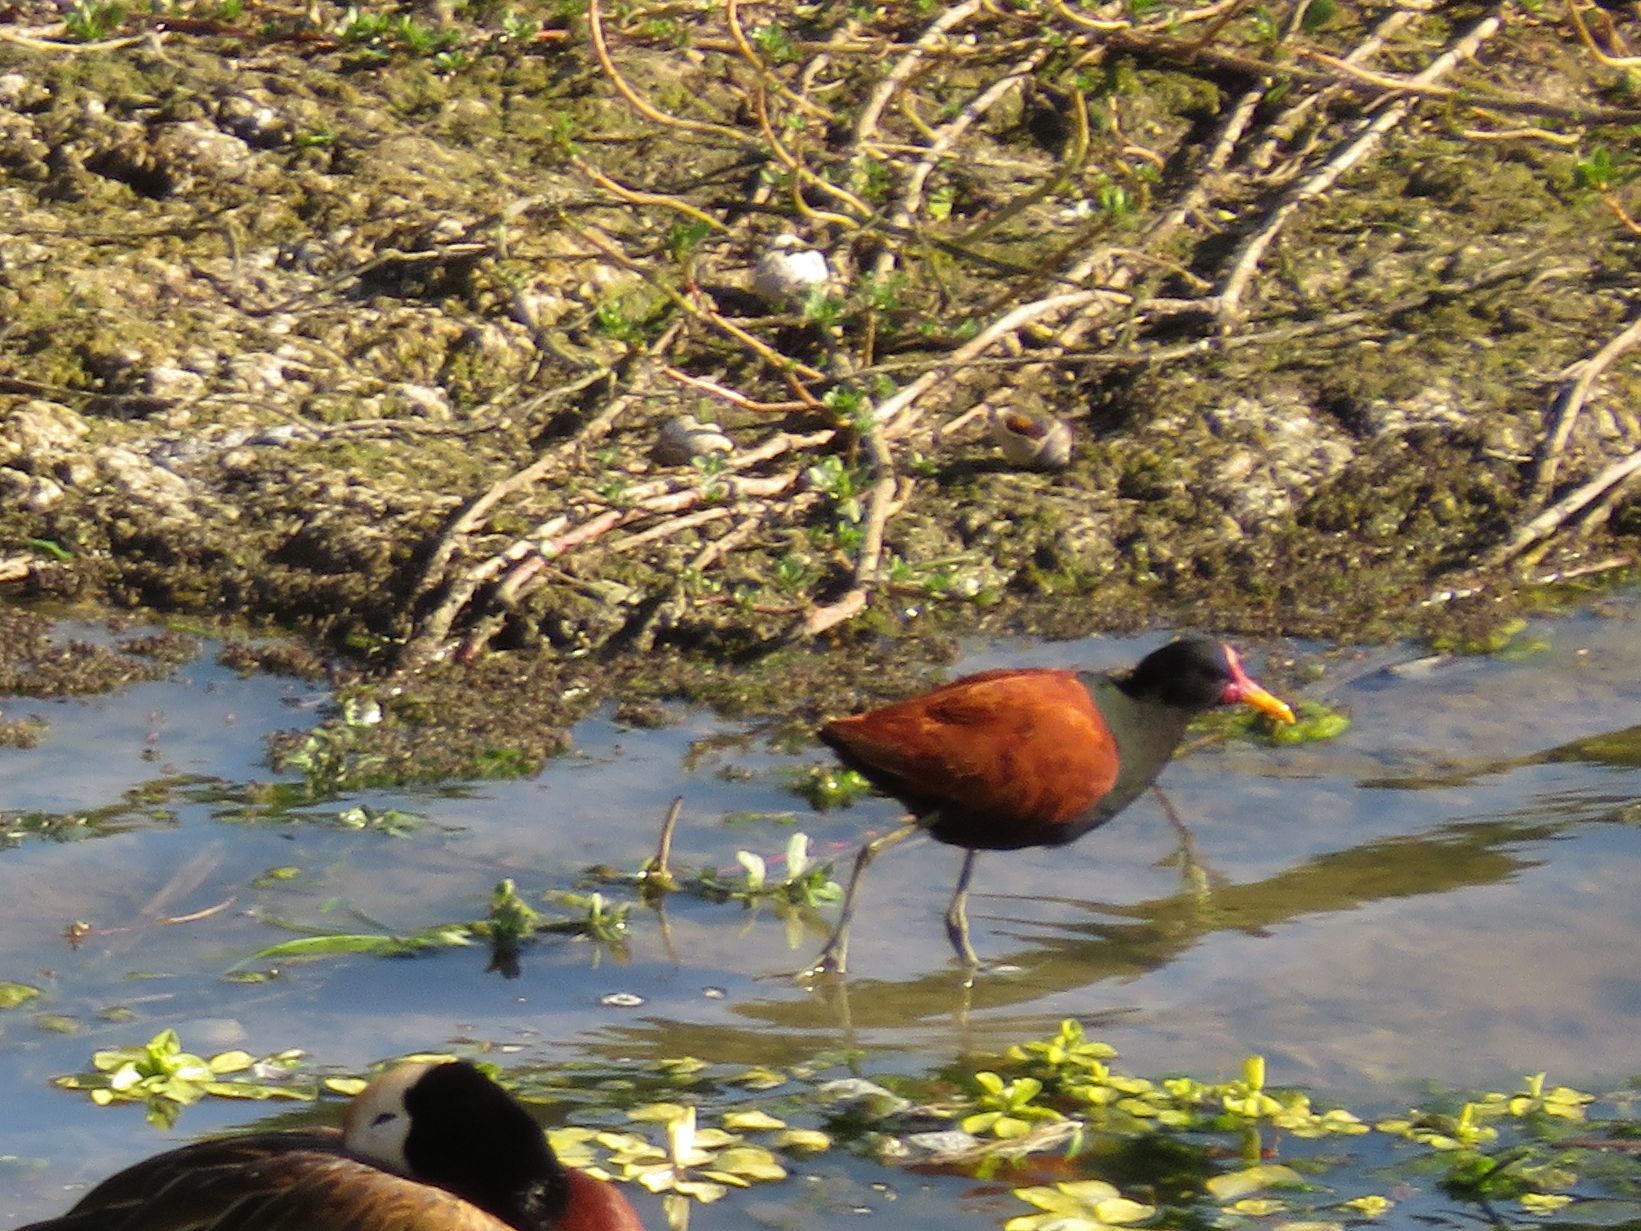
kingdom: Animalia
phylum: Chordata
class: Aves
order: Charadriiformes
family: Jacanidae
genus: Jacana
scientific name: Jacana jacana
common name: Wattled jacana
